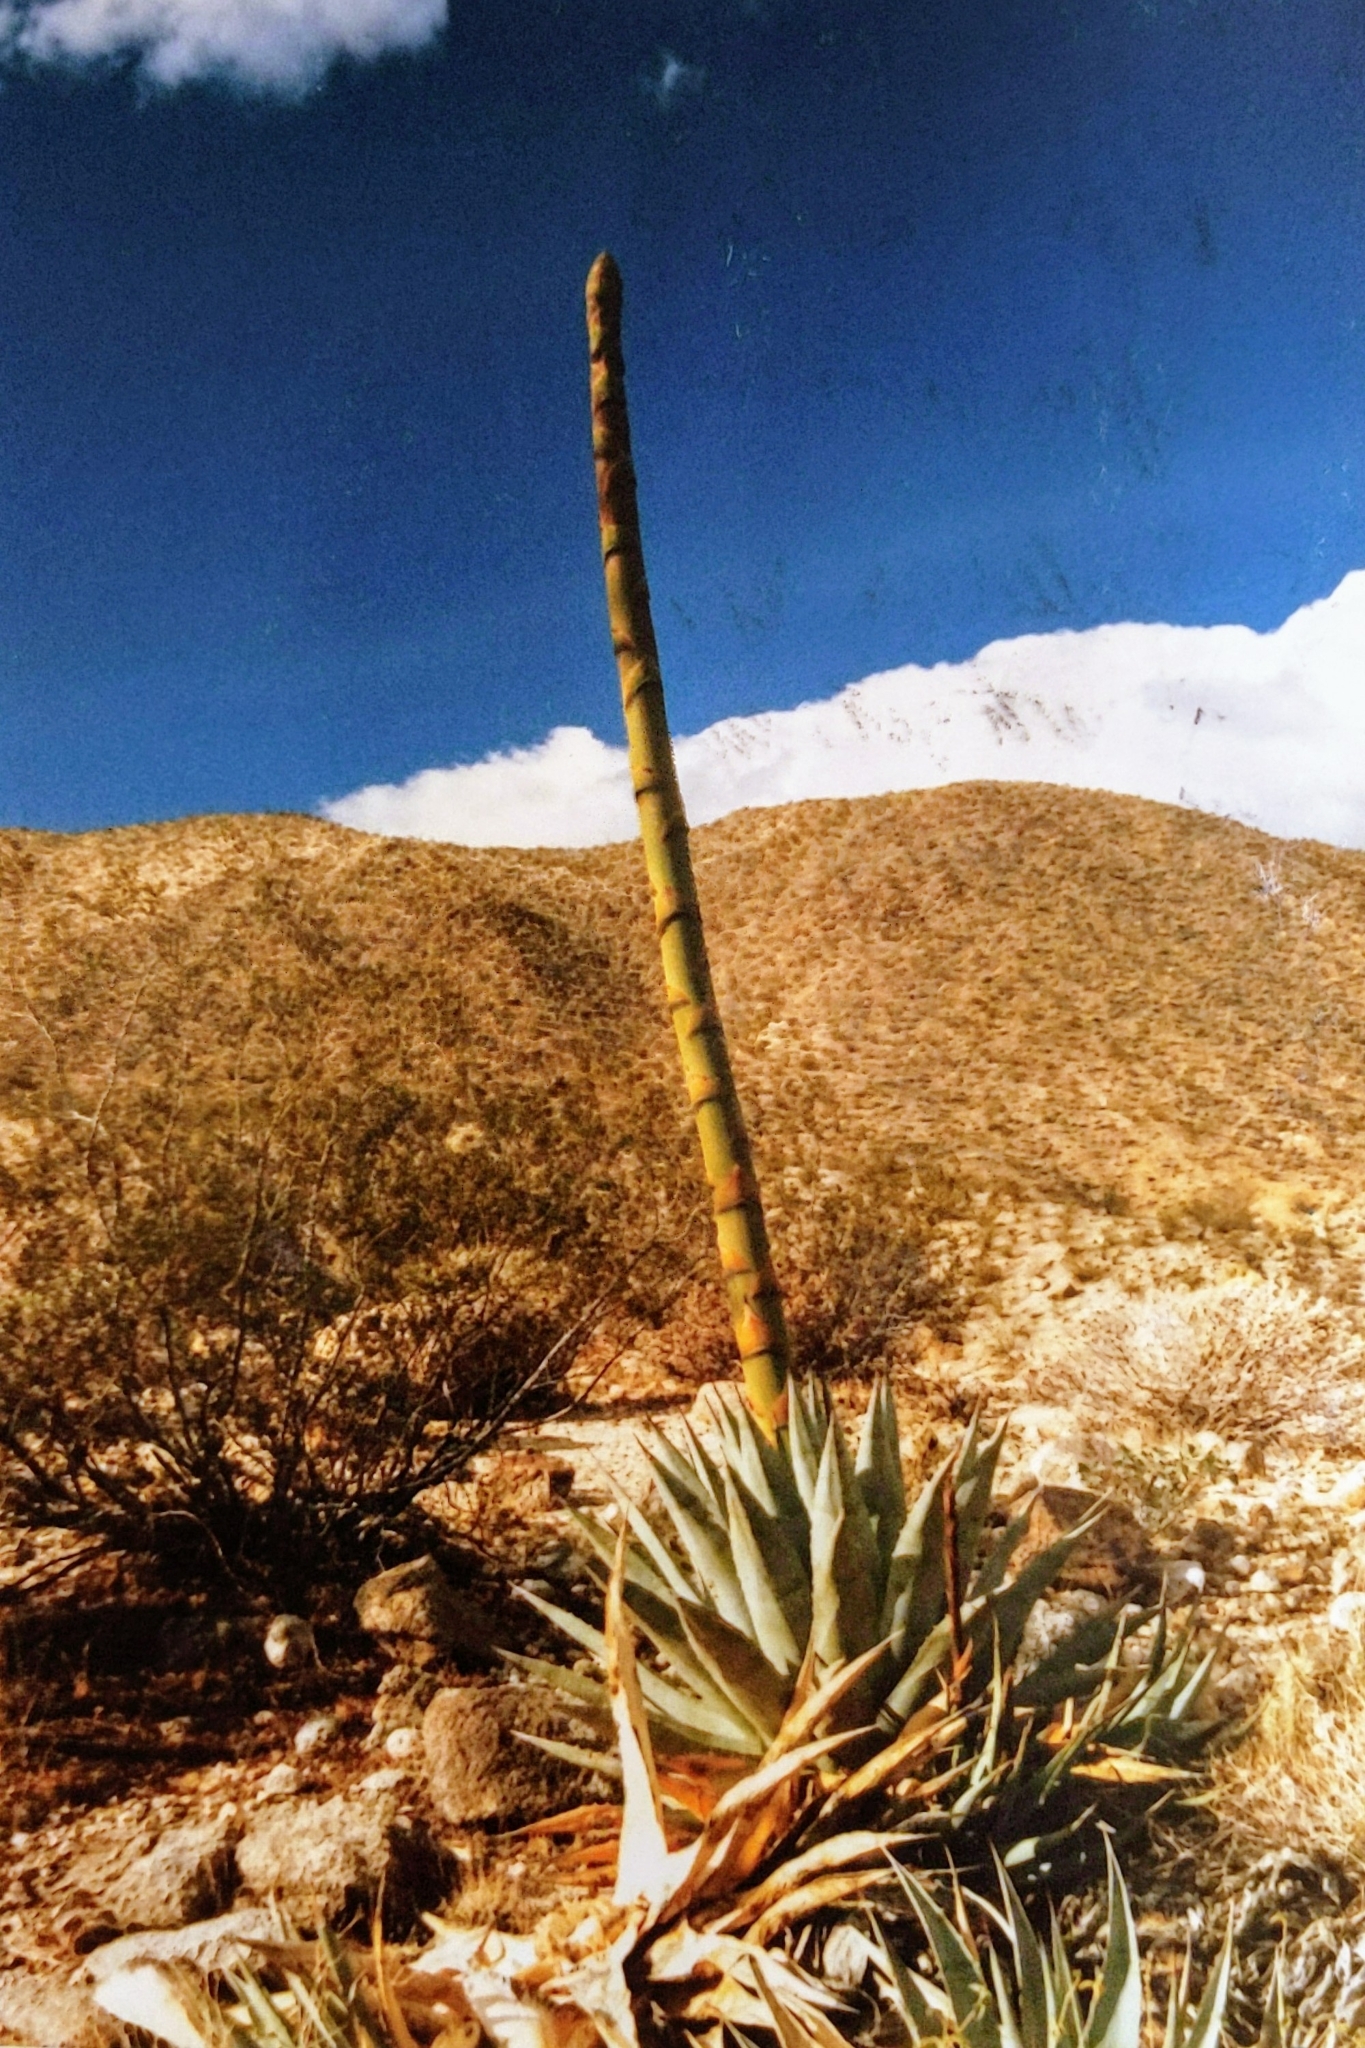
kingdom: Plantae
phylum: Tracheophyta
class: Liliopsida
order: Asparagales
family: Asparagaceae
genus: Agave
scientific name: Agave deserti
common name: Desert agave
